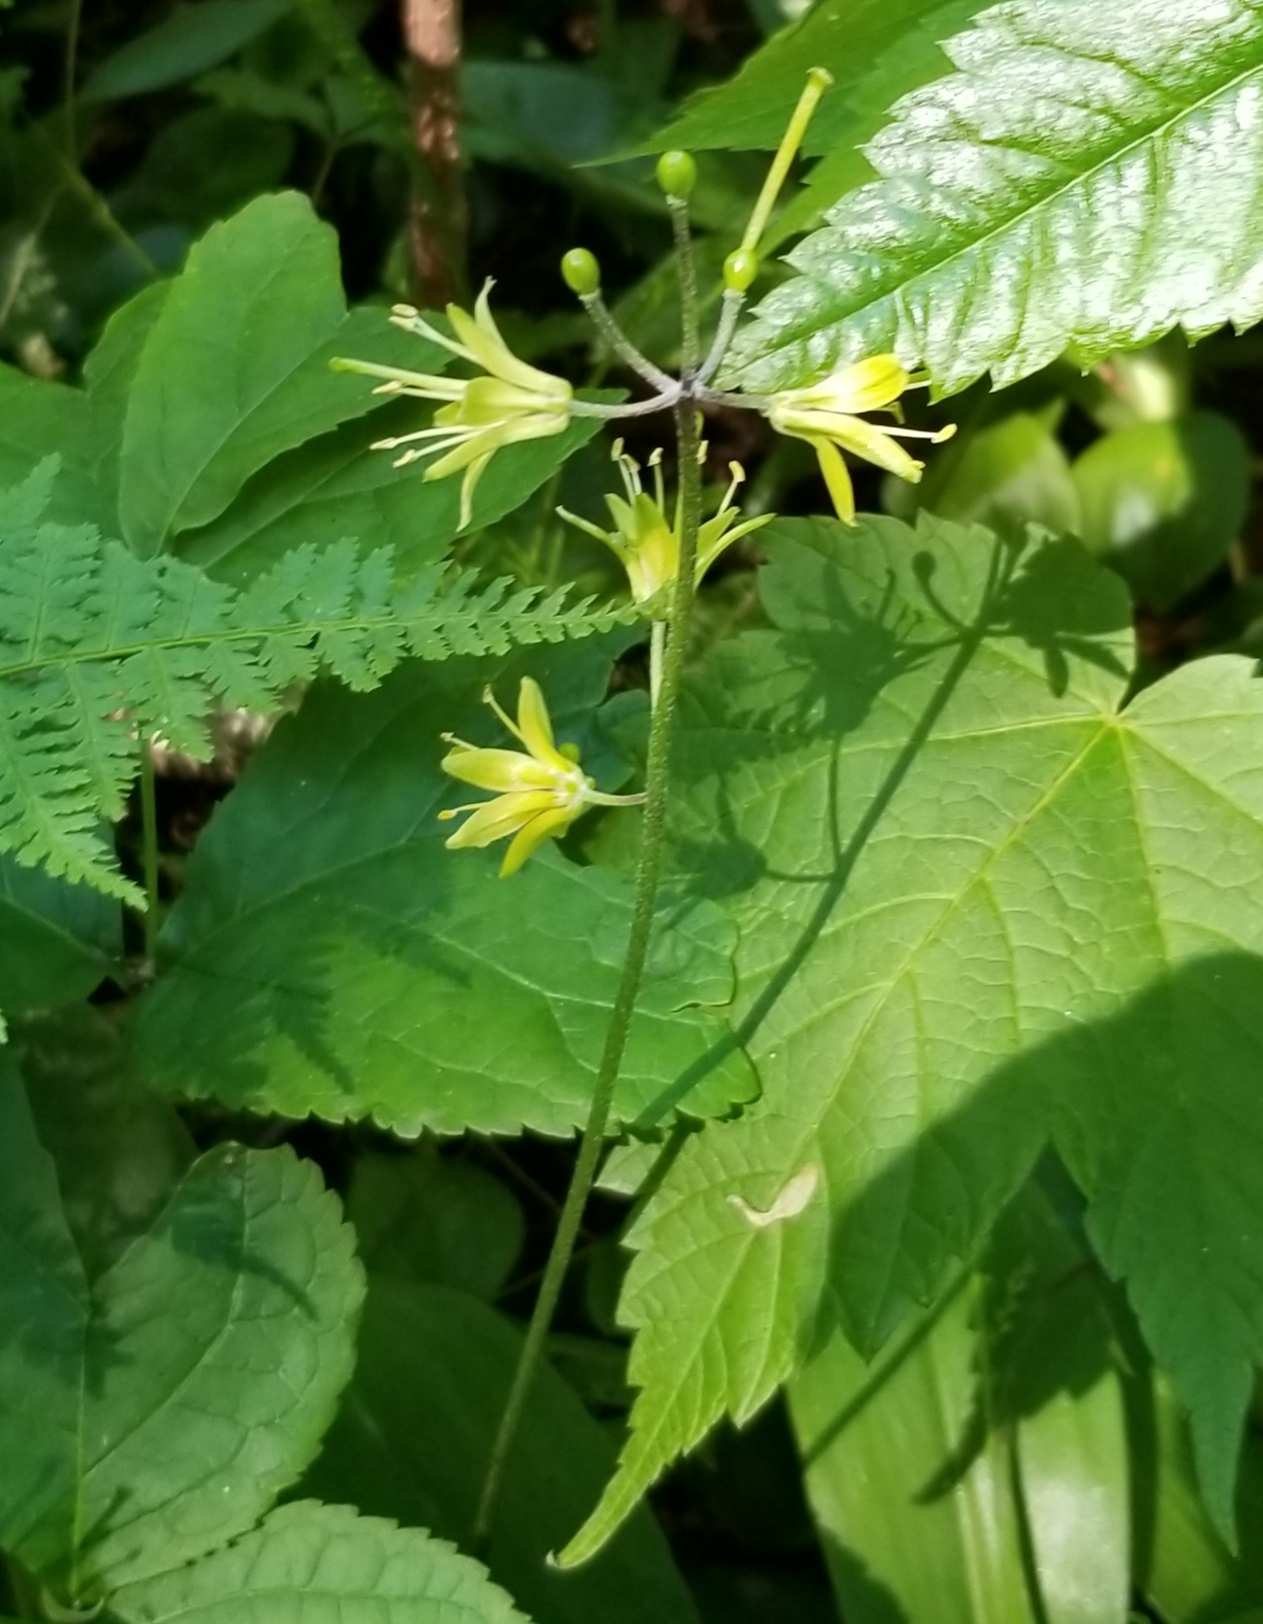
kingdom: Plantae
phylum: Tracheophyta
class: Liliopsida
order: Liliales
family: Liliaceae
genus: Clintonia
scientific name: Clintonia borealis
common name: Yellow clintonia
